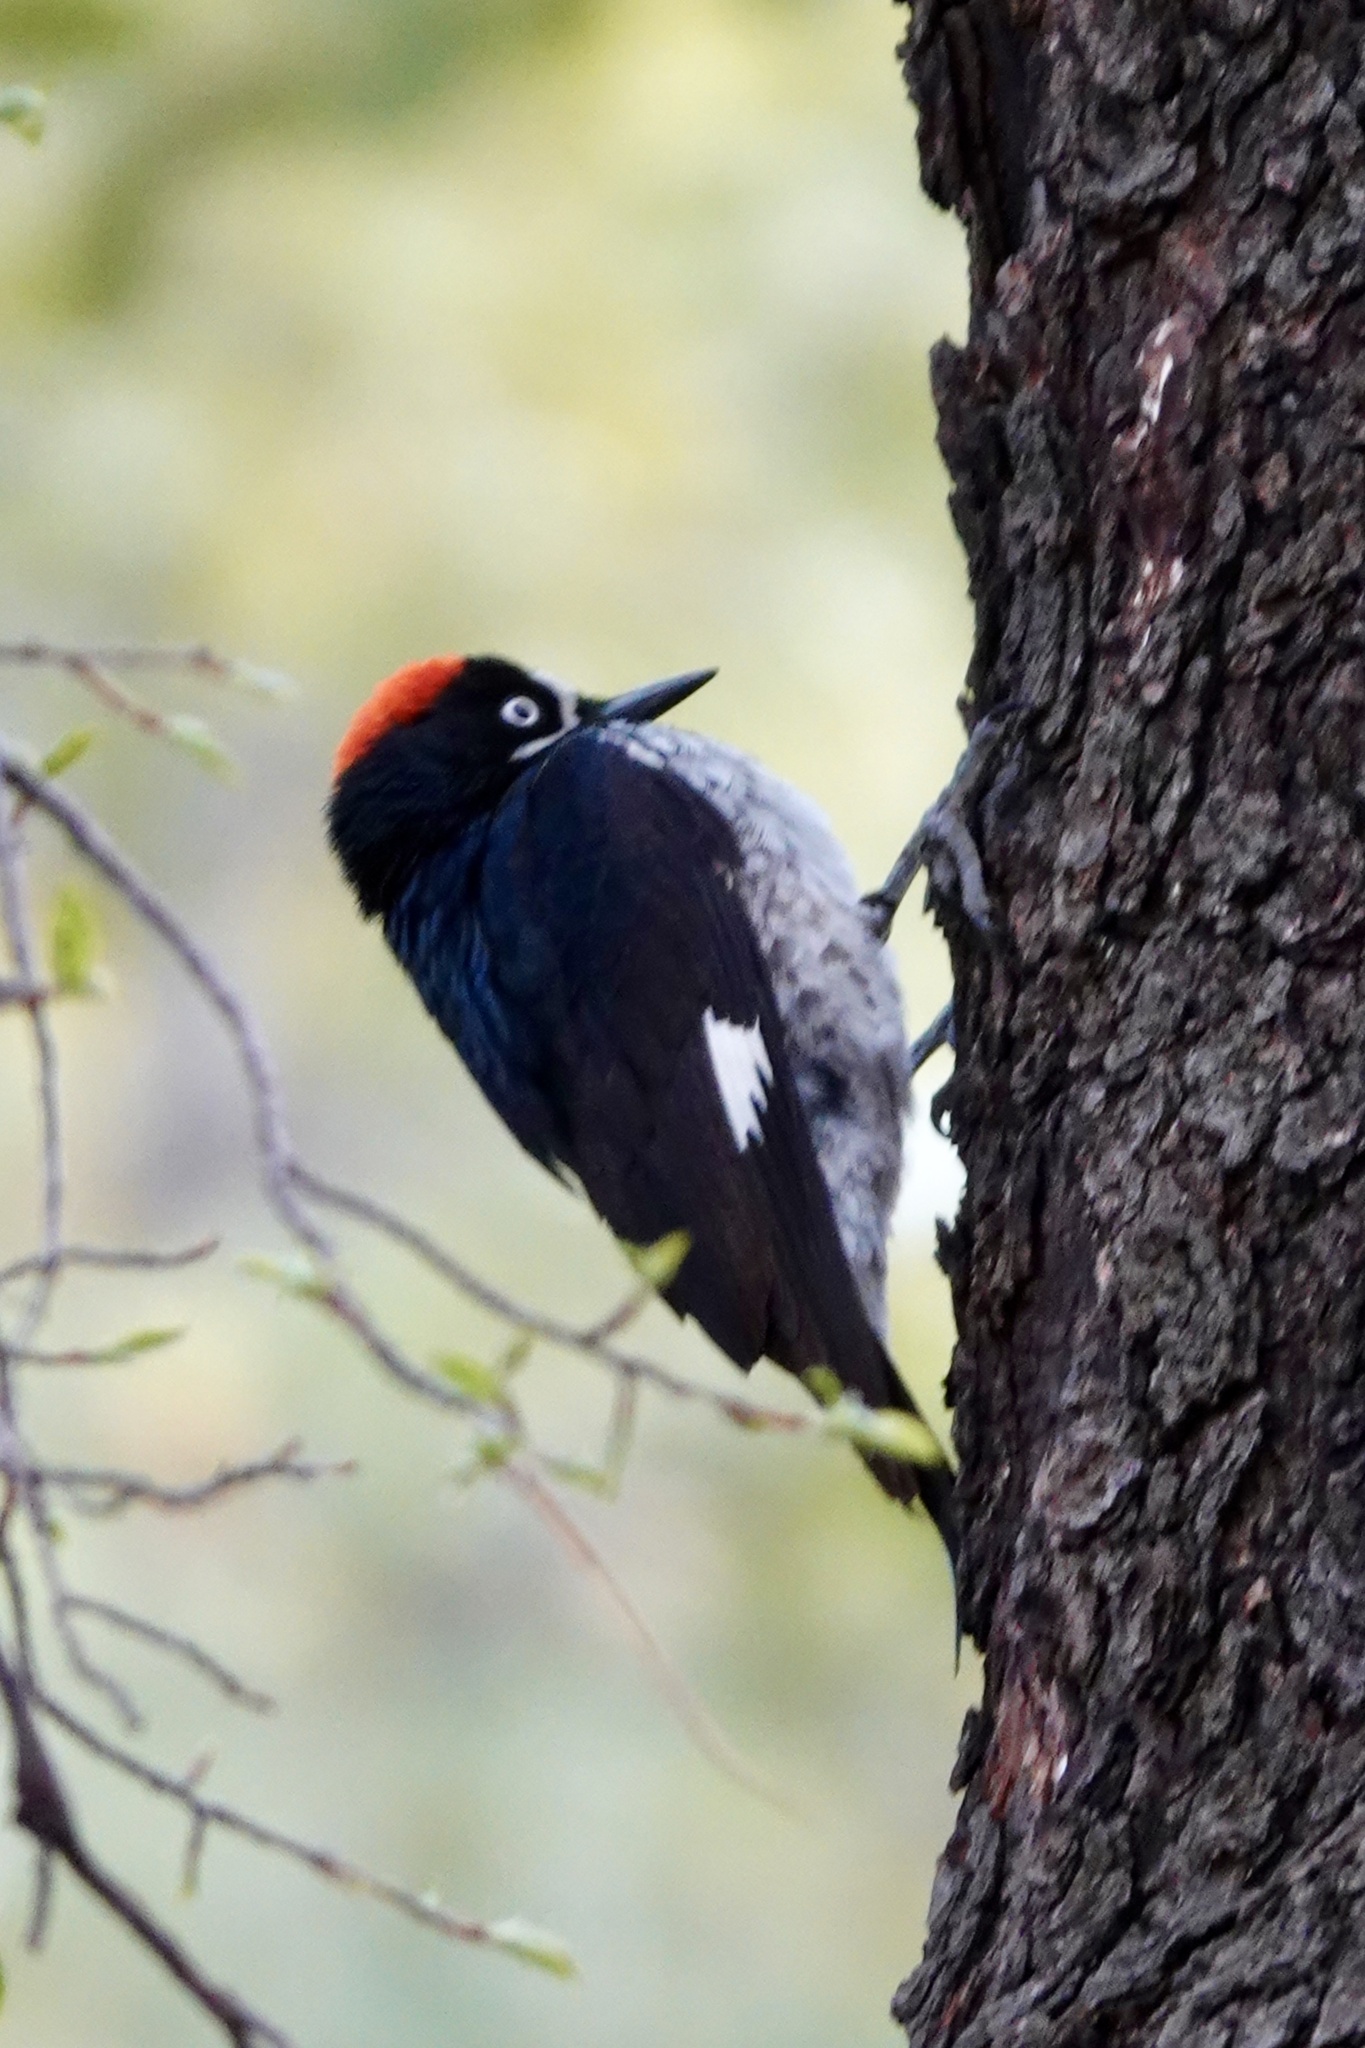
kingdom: Animalia
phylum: Chordata
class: Aves
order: Piciformes
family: Picidae
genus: Melanerpes
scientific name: Melanerpes formicivorus
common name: Acorn woodpecker
